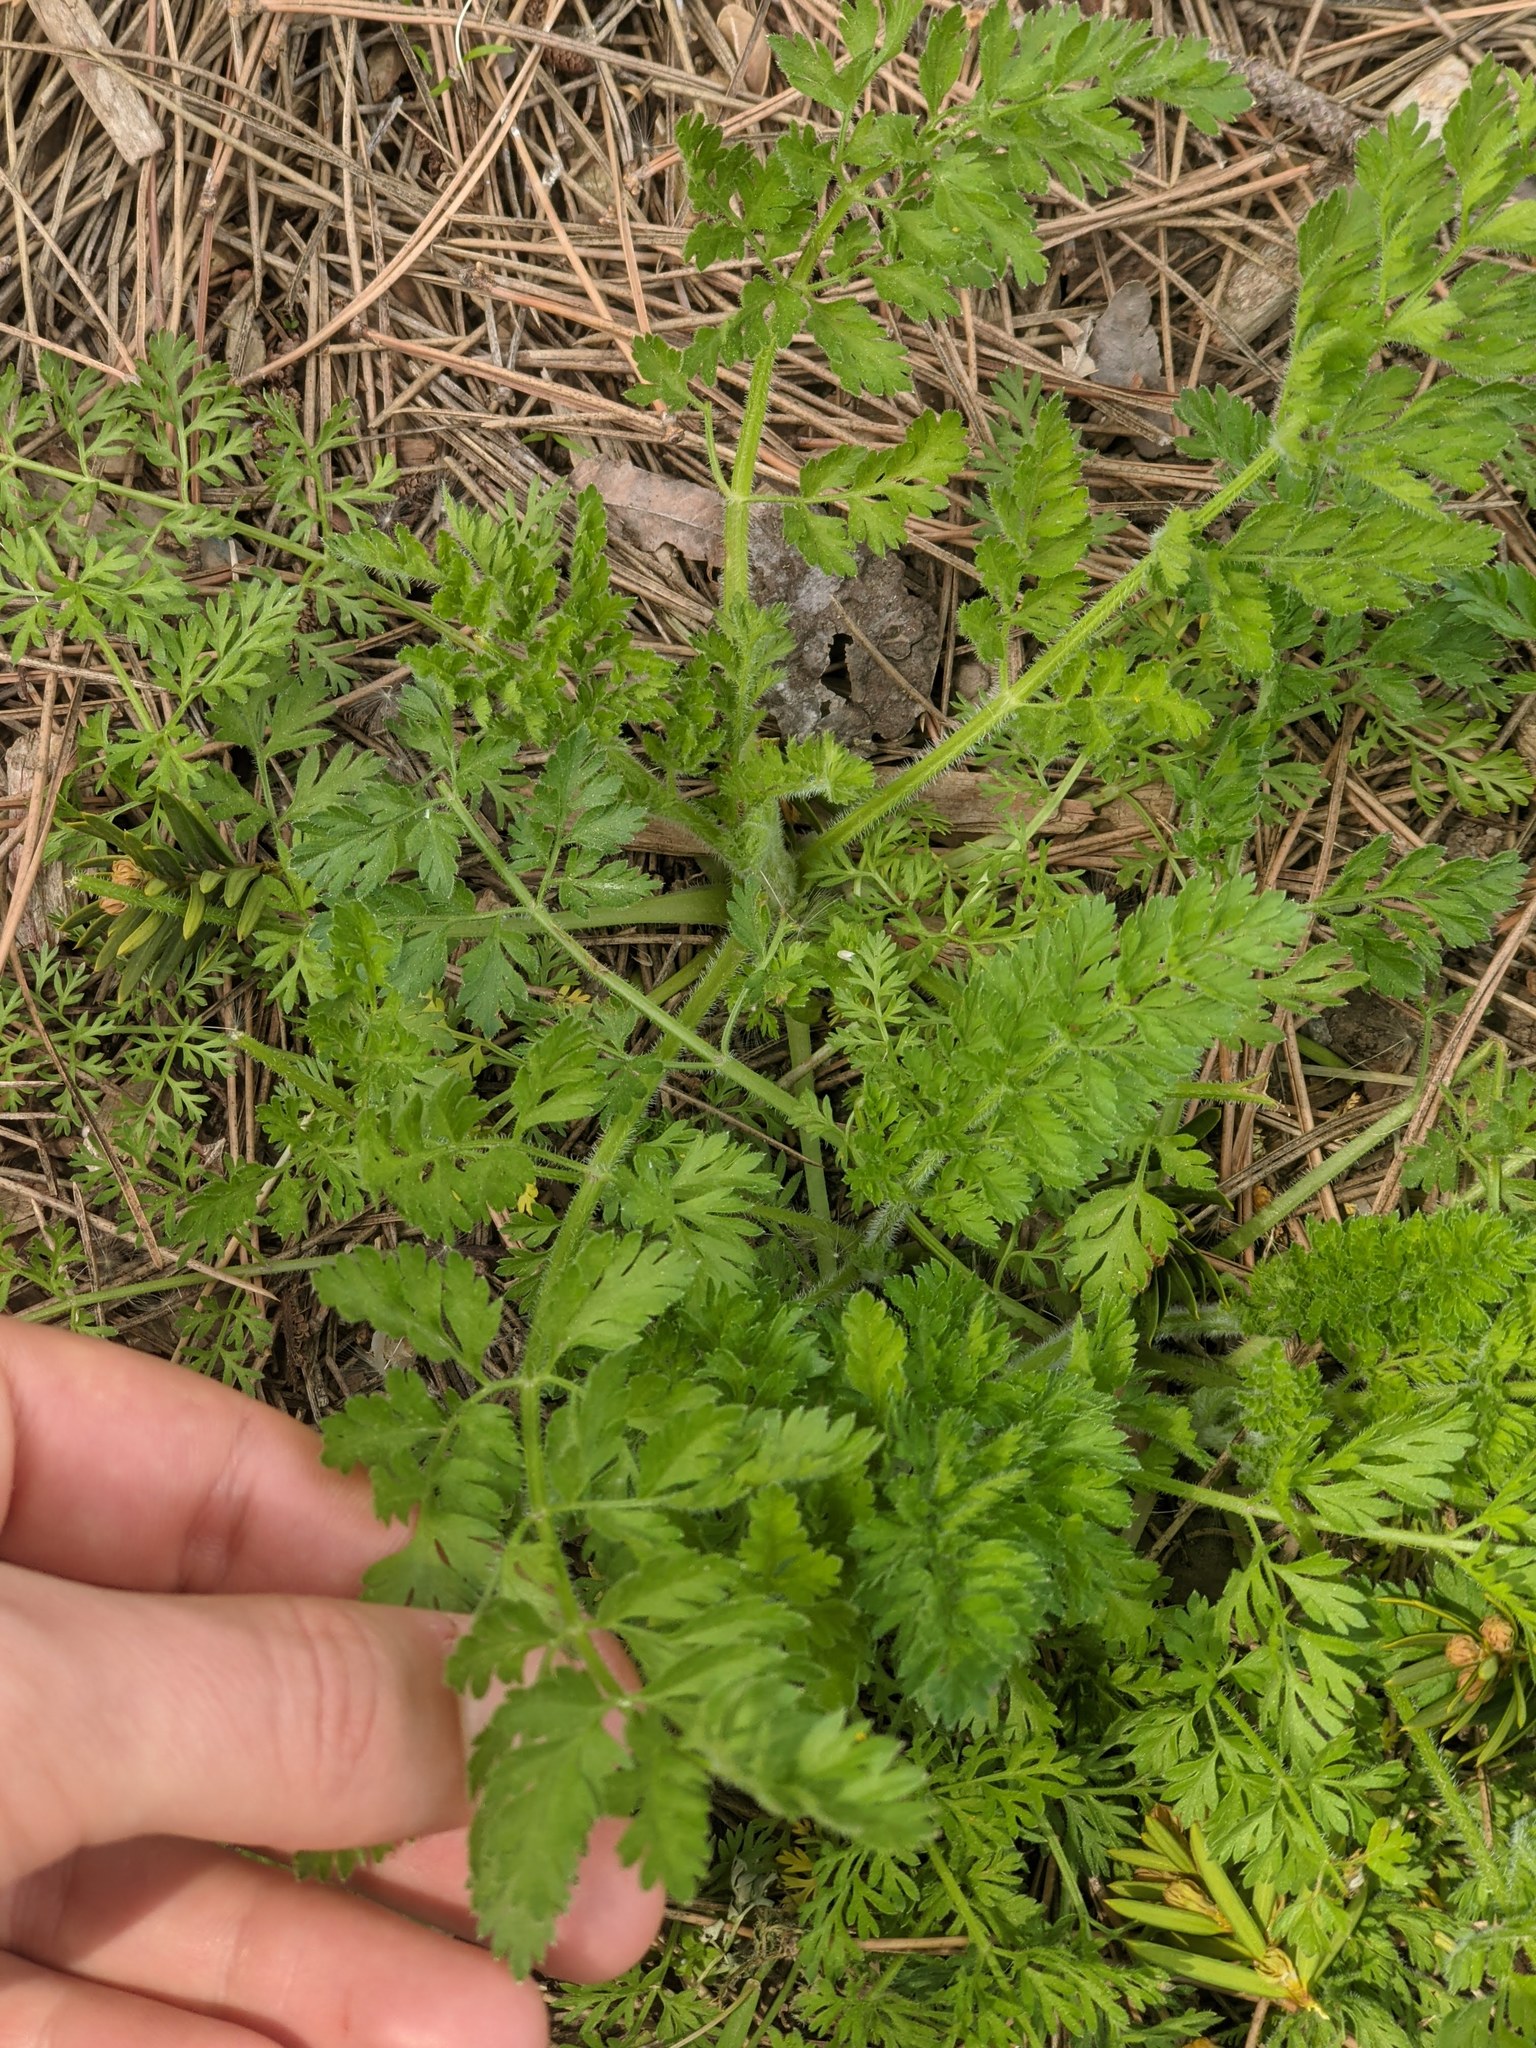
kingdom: Plantae
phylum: Tracheophyta
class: Magnoliopsida
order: Apiales
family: Apiaceae
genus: Daucus
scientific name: Daucus carota
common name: Wild carrot
